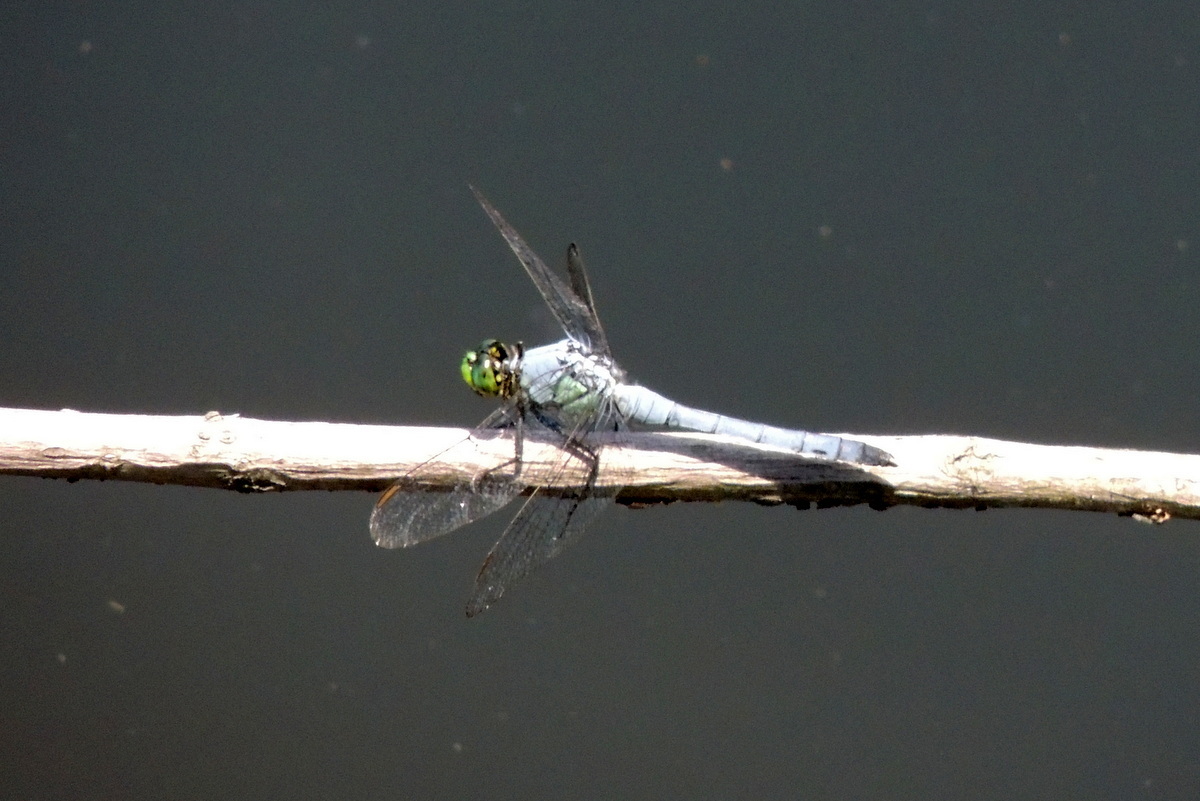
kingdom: Animalia
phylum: Arthropoda
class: Insecta
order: Odonata
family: Libellulidae
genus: Erythemis
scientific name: Erythemis simplicicollis
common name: Eastern pondhawk
